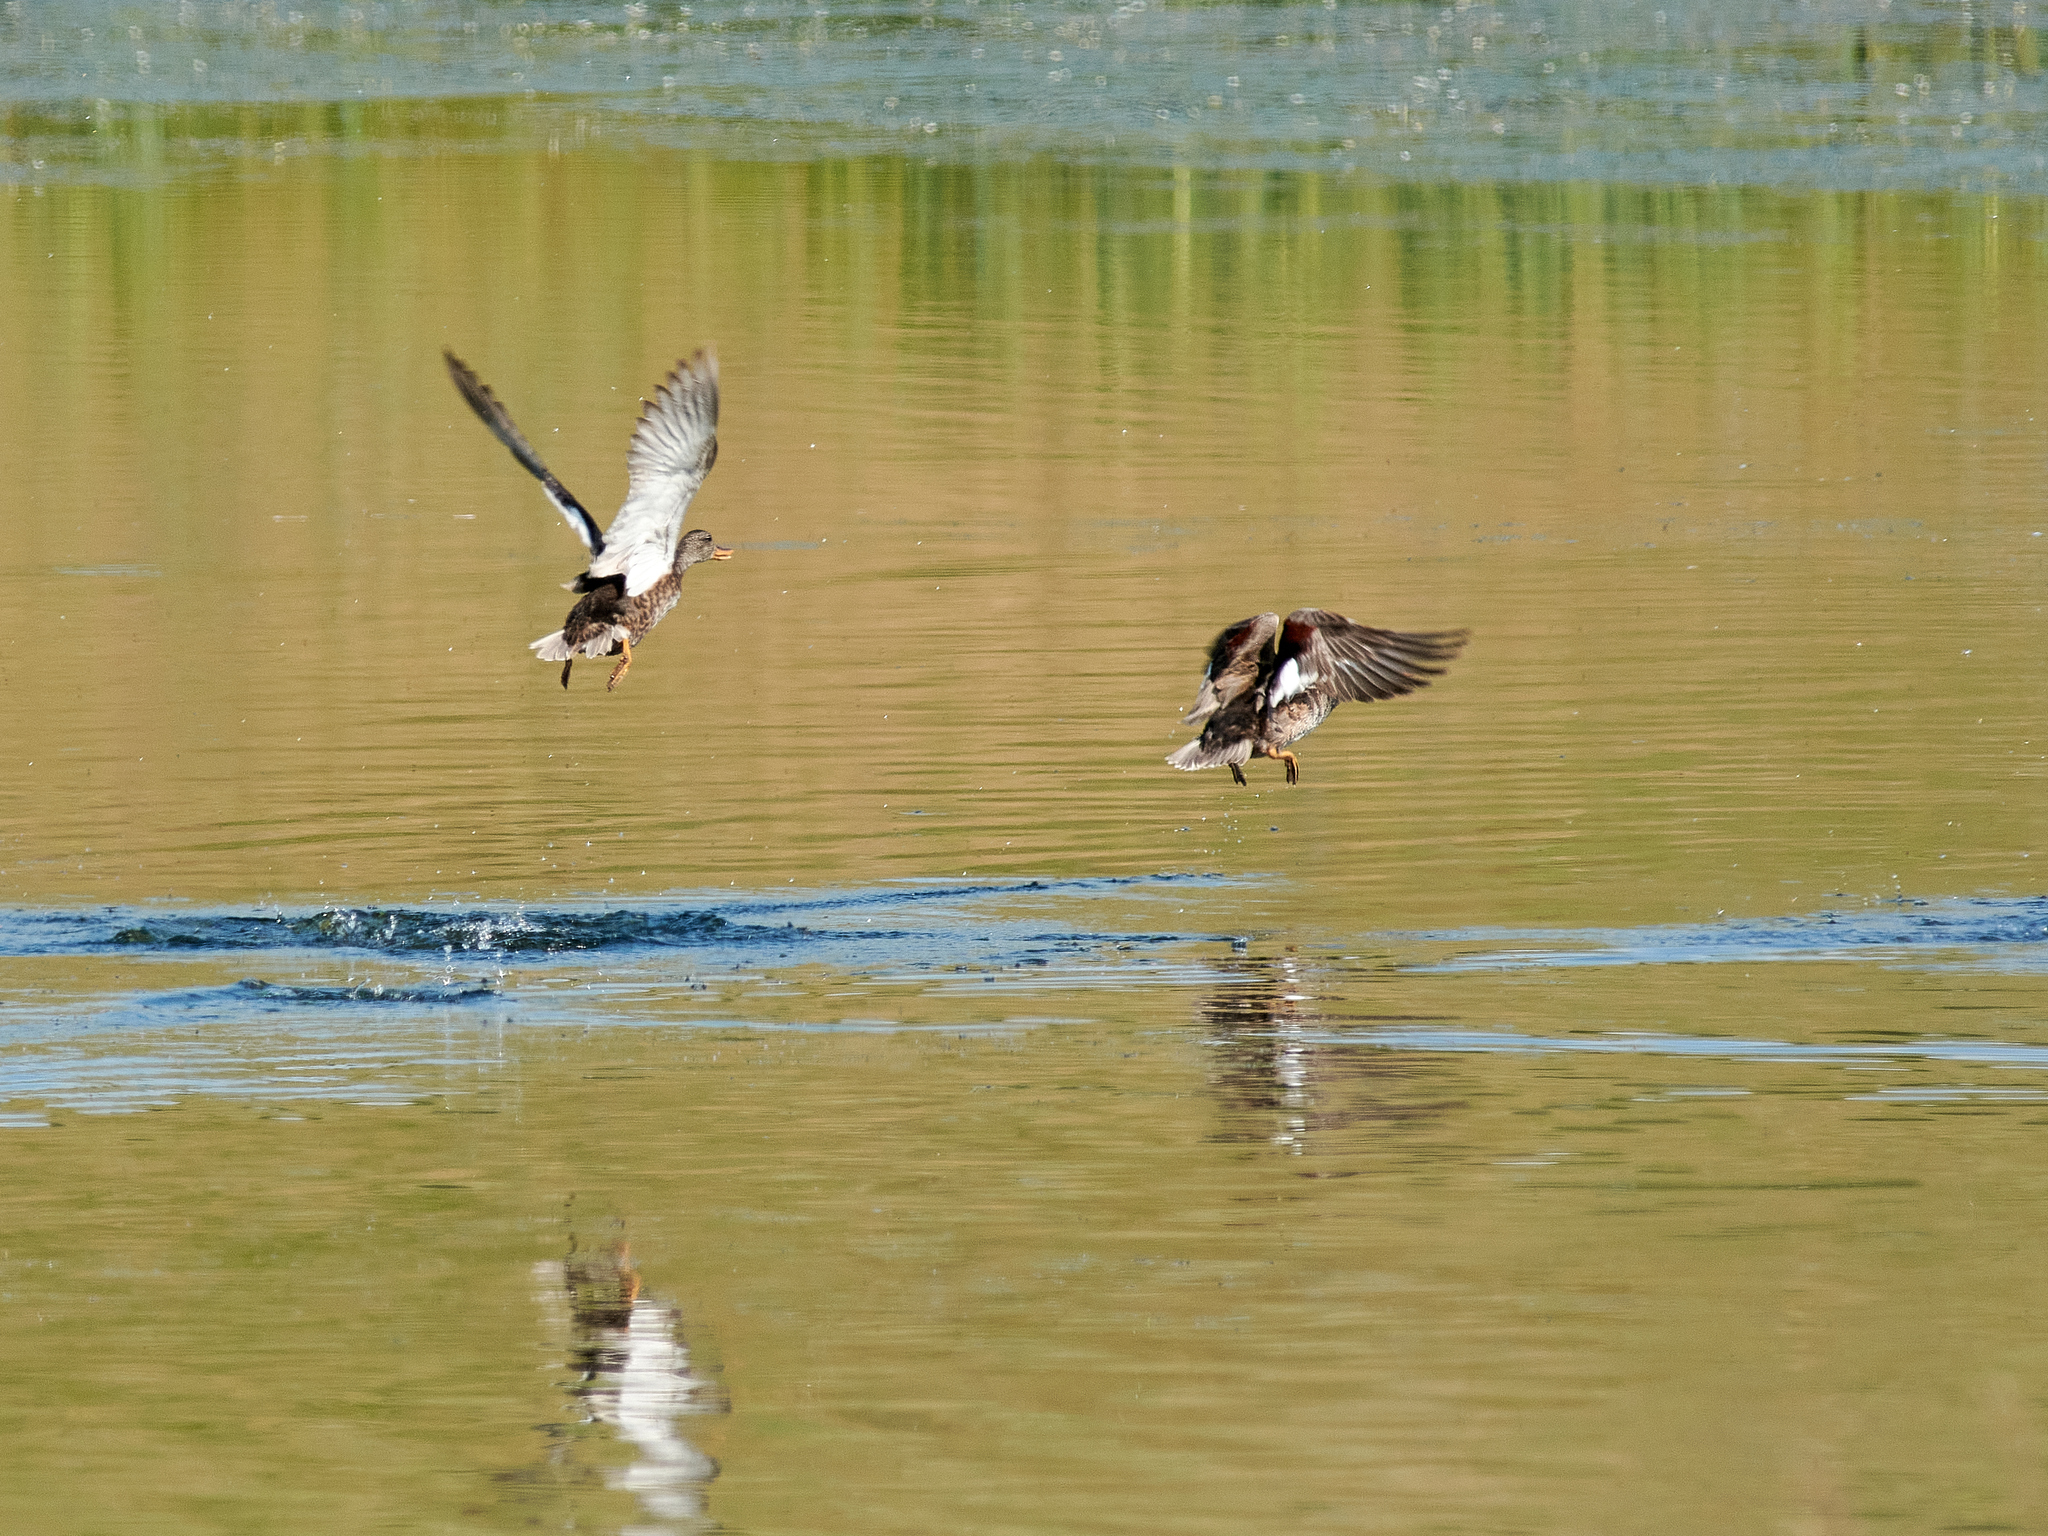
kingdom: Animalia
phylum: Chordata
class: Aves
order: Anseriformes
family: Anatidae
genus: Mareca
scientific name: Mareca strepera
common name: Gadwall
